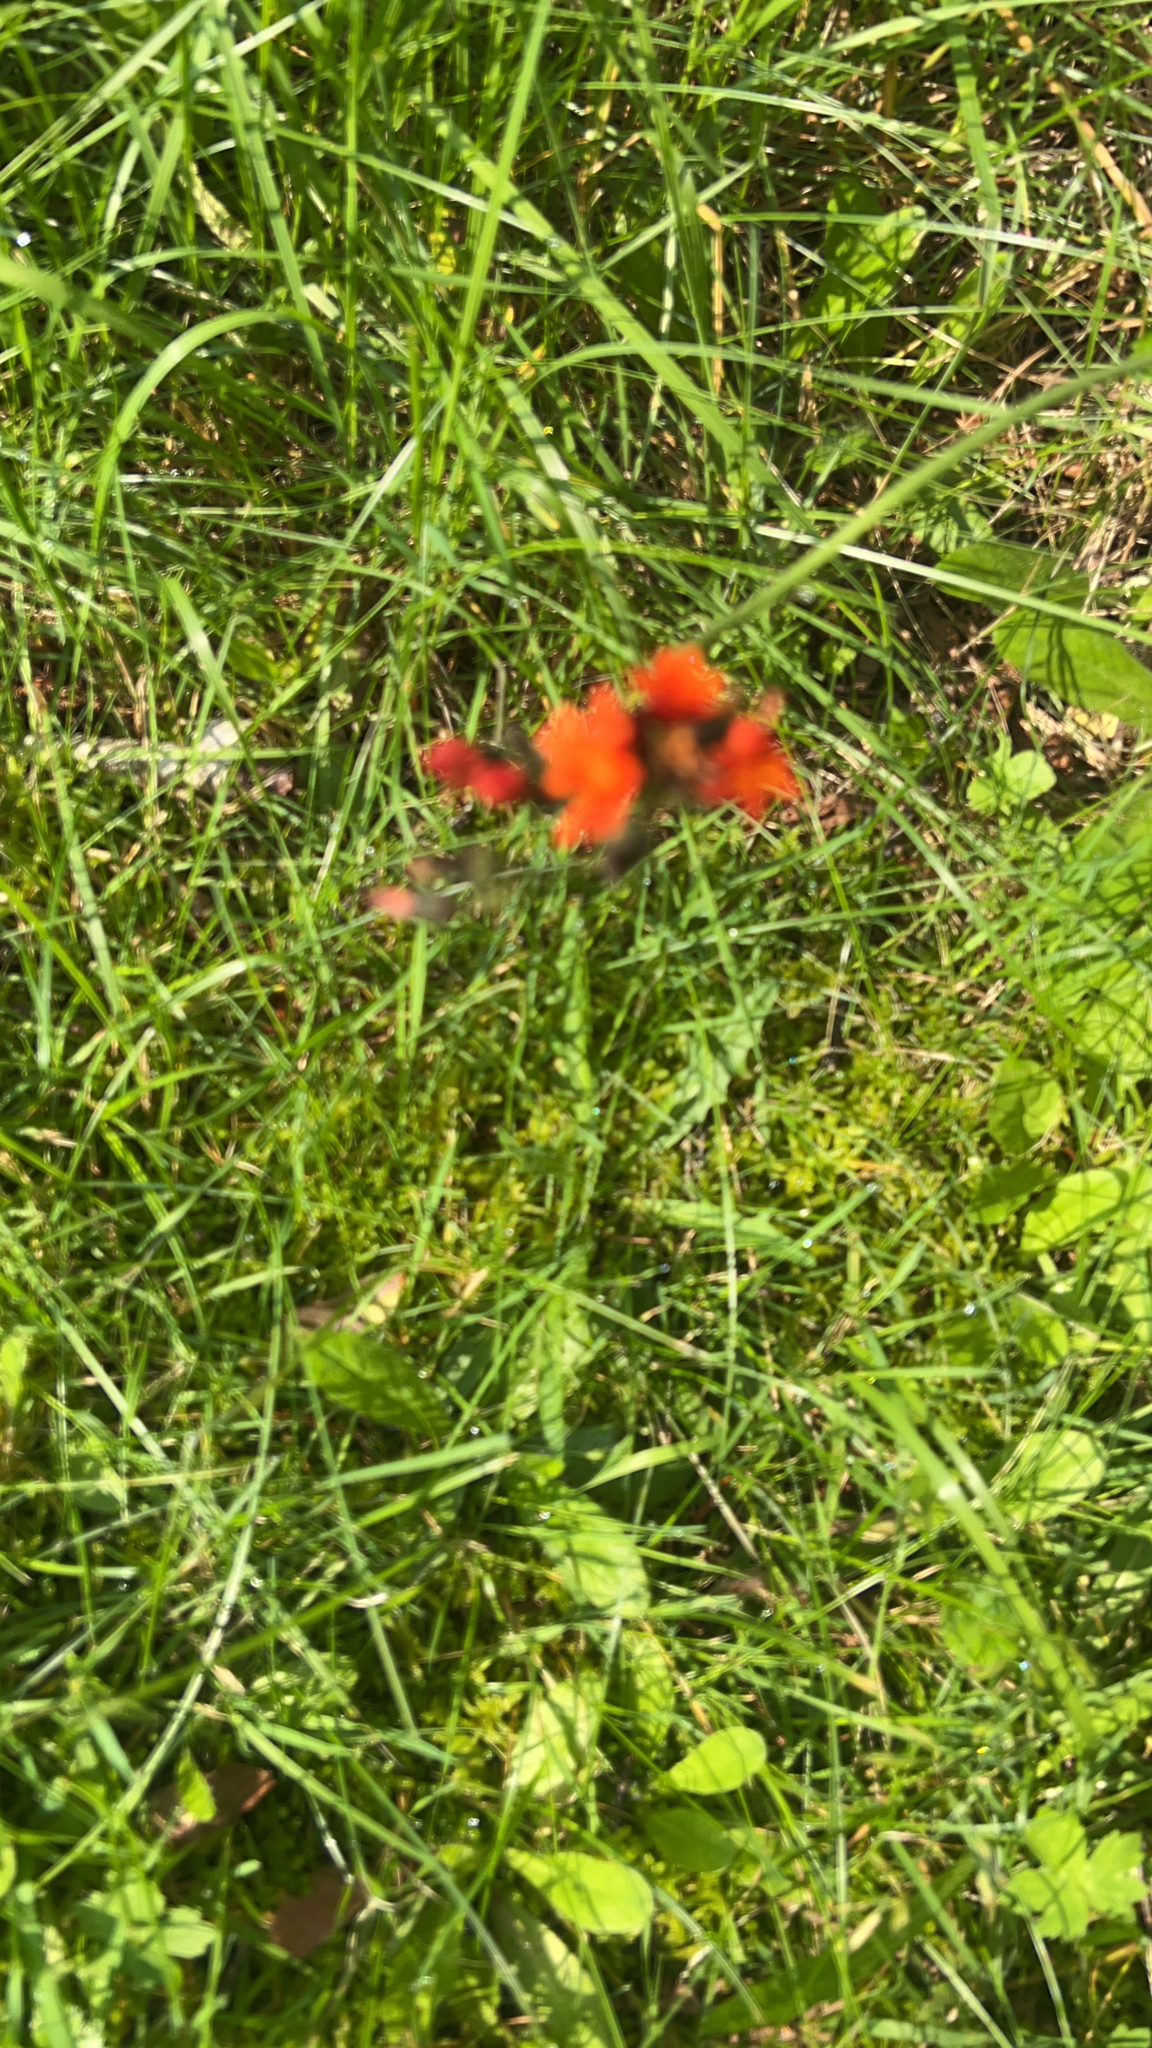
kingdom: Plantae
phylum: Tracheophyta
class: Magnoliopsida
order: Asterales
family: Asteraceae
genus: Pilosella
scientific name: Pilosella aurantiaca
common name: Fox-and-cubs
